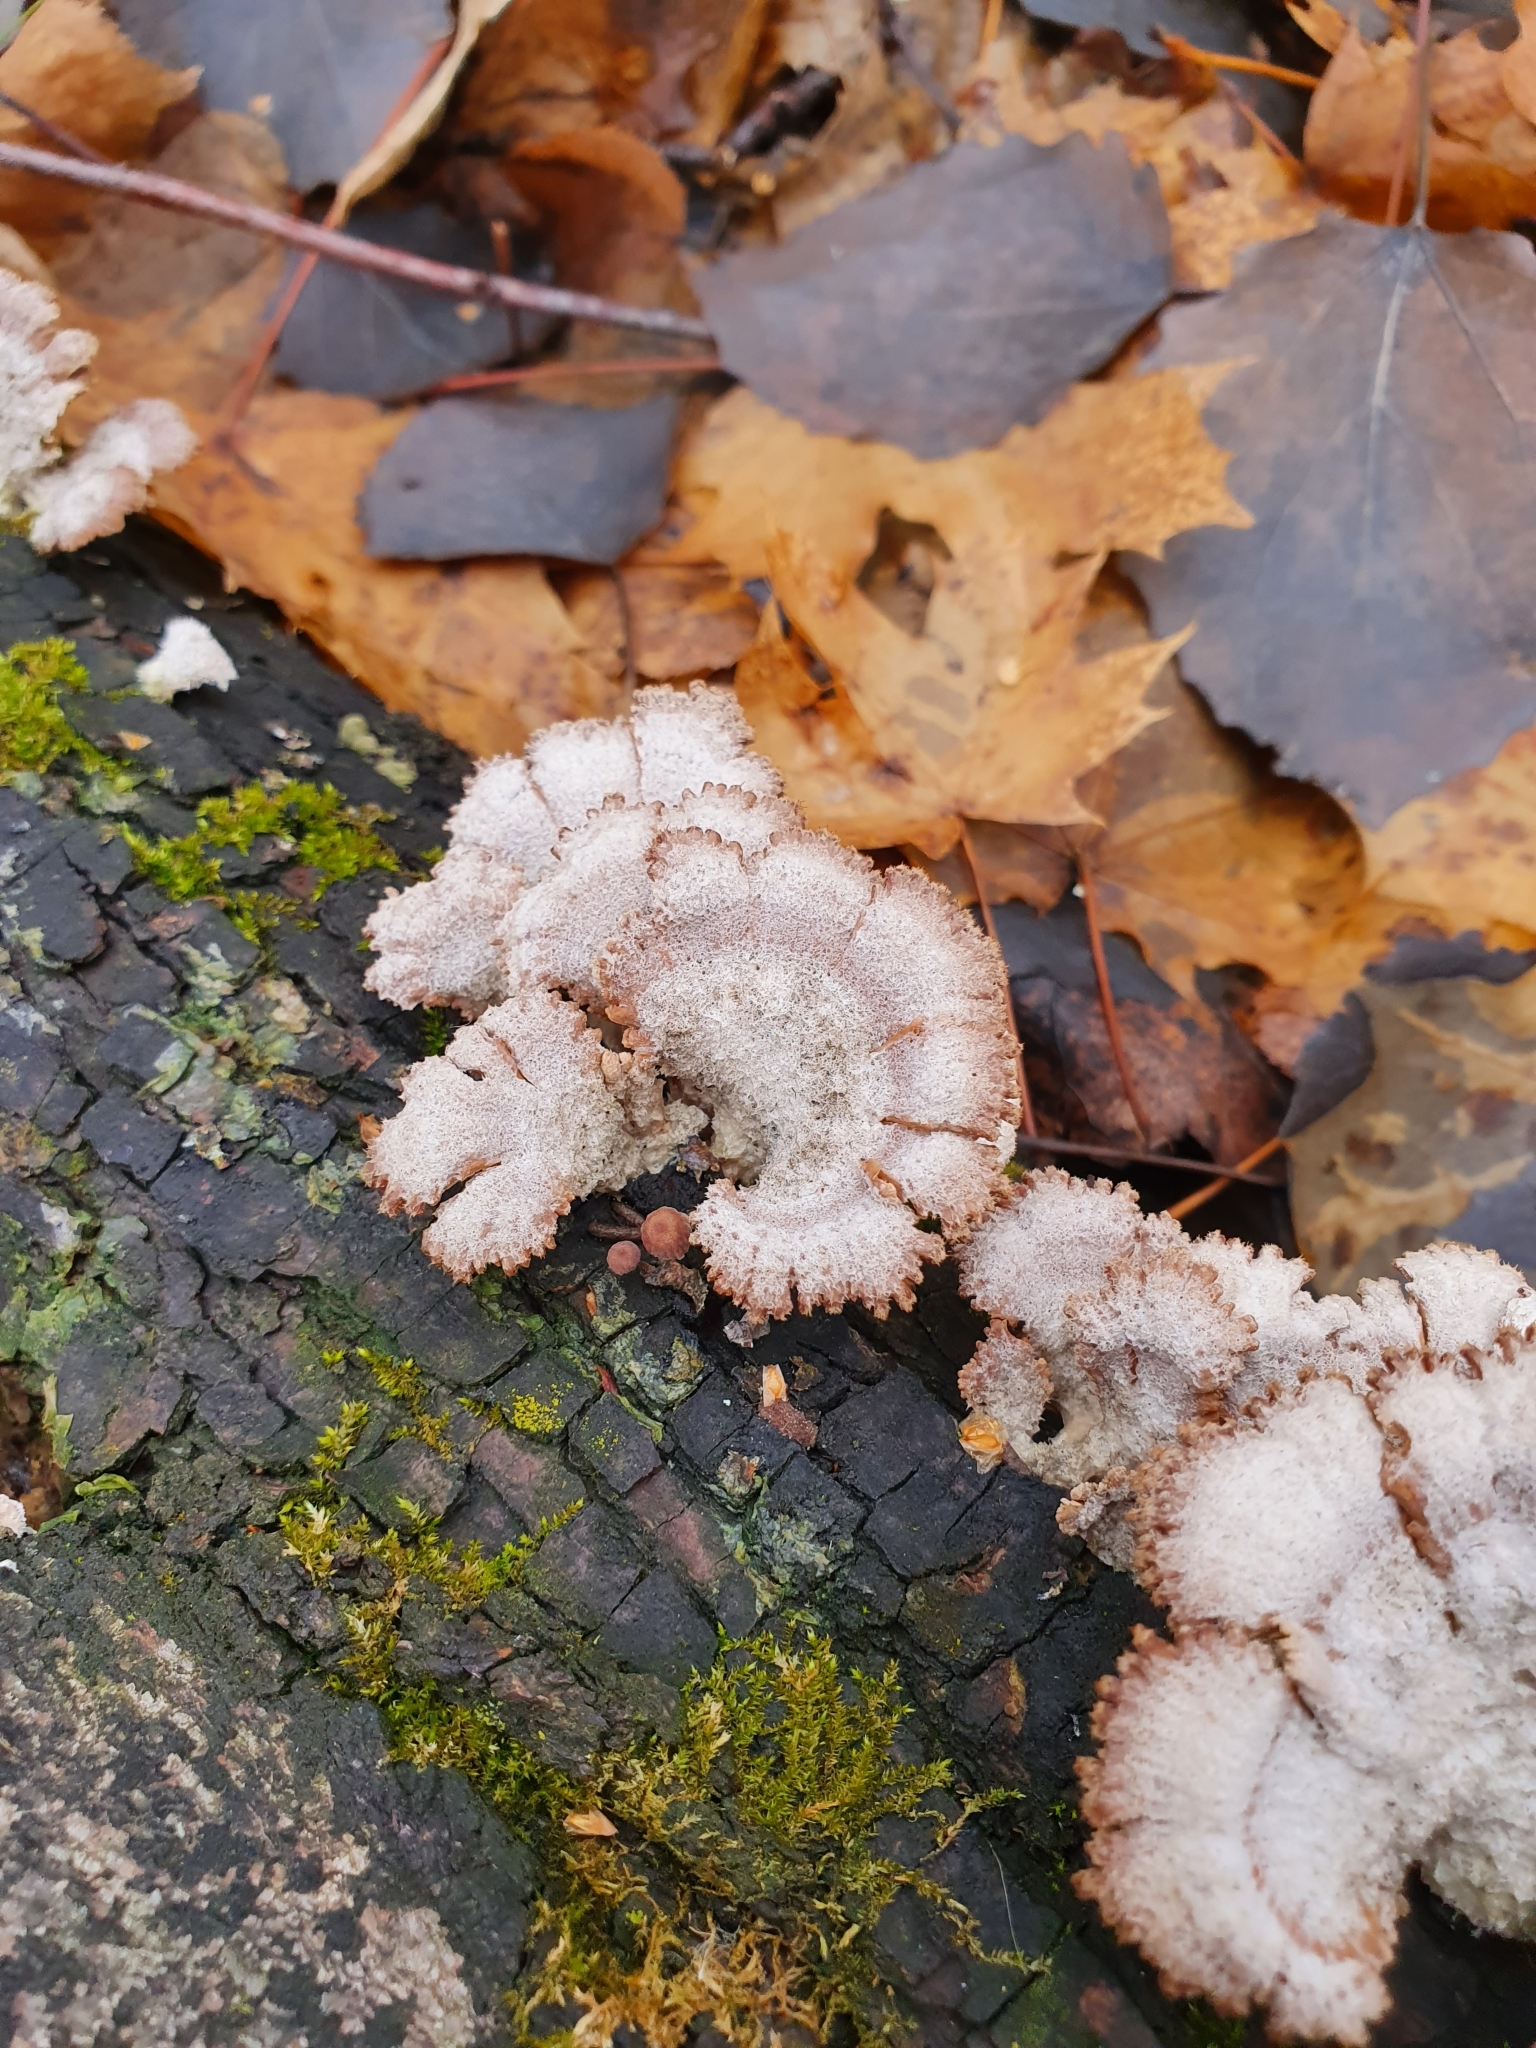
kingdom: Fungi
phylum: Basidiomycota
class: Agaricomycetes
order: Agaricales
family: Schizophyllaceae
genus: Schizophyllum
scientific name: Schizophyllum commune
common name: Common porecrust
